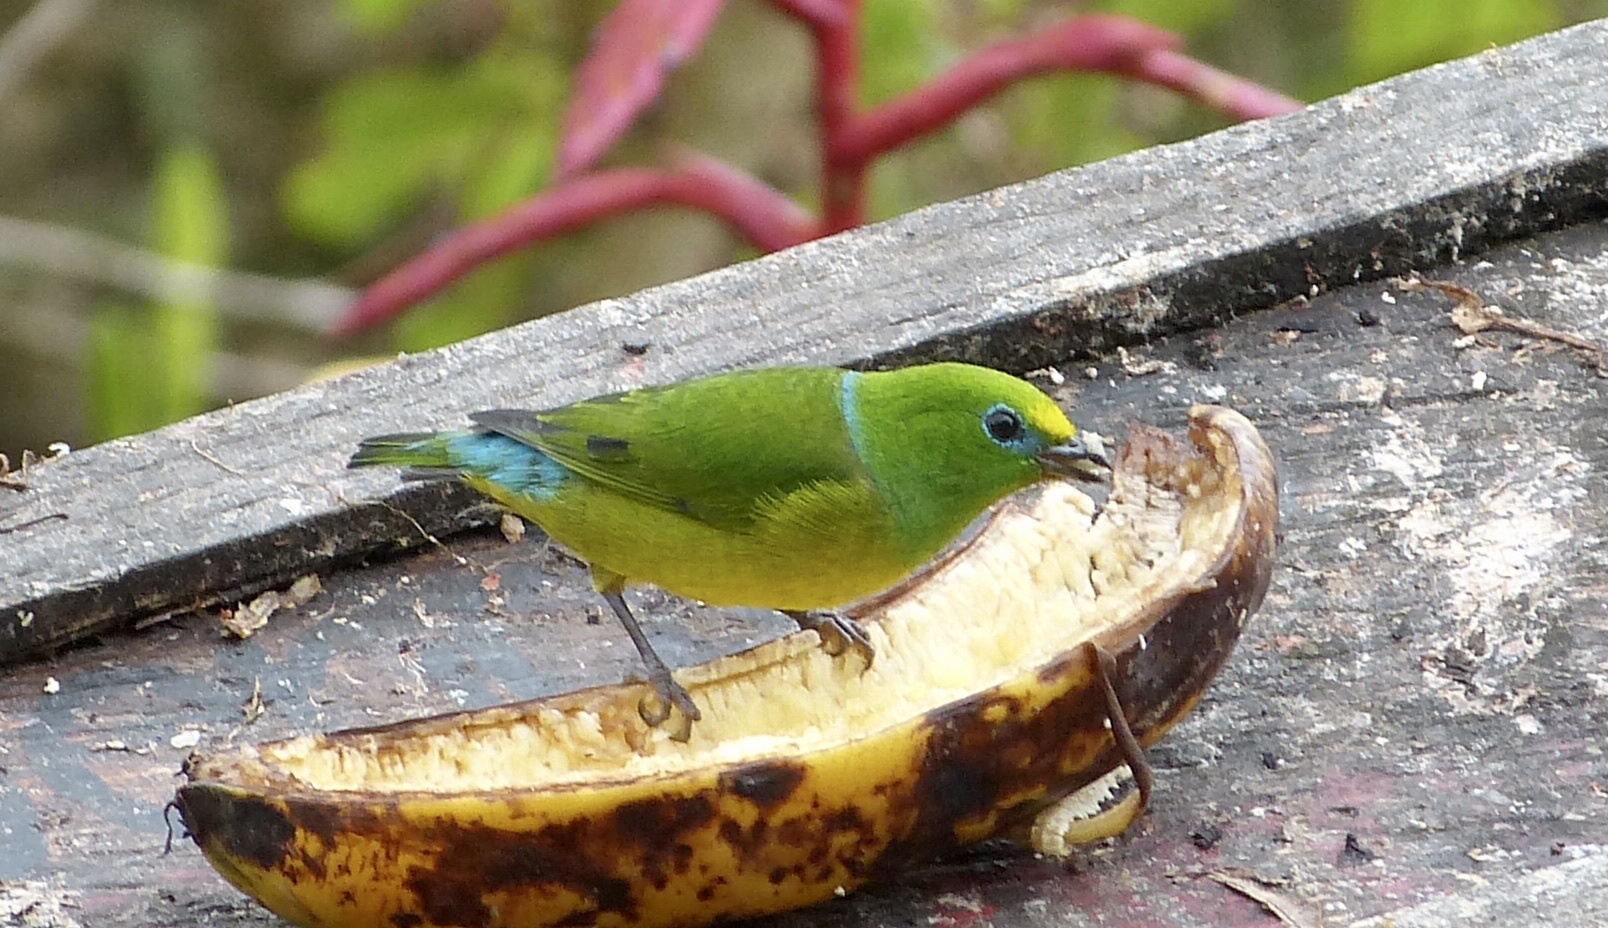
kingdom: Animalia
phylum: Chordata
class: Aves
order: Passeriformes
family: Fringillidae
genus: Chlorophonia
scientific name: Chlorophonia cyanea
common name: Blue-naped chlorophonia
